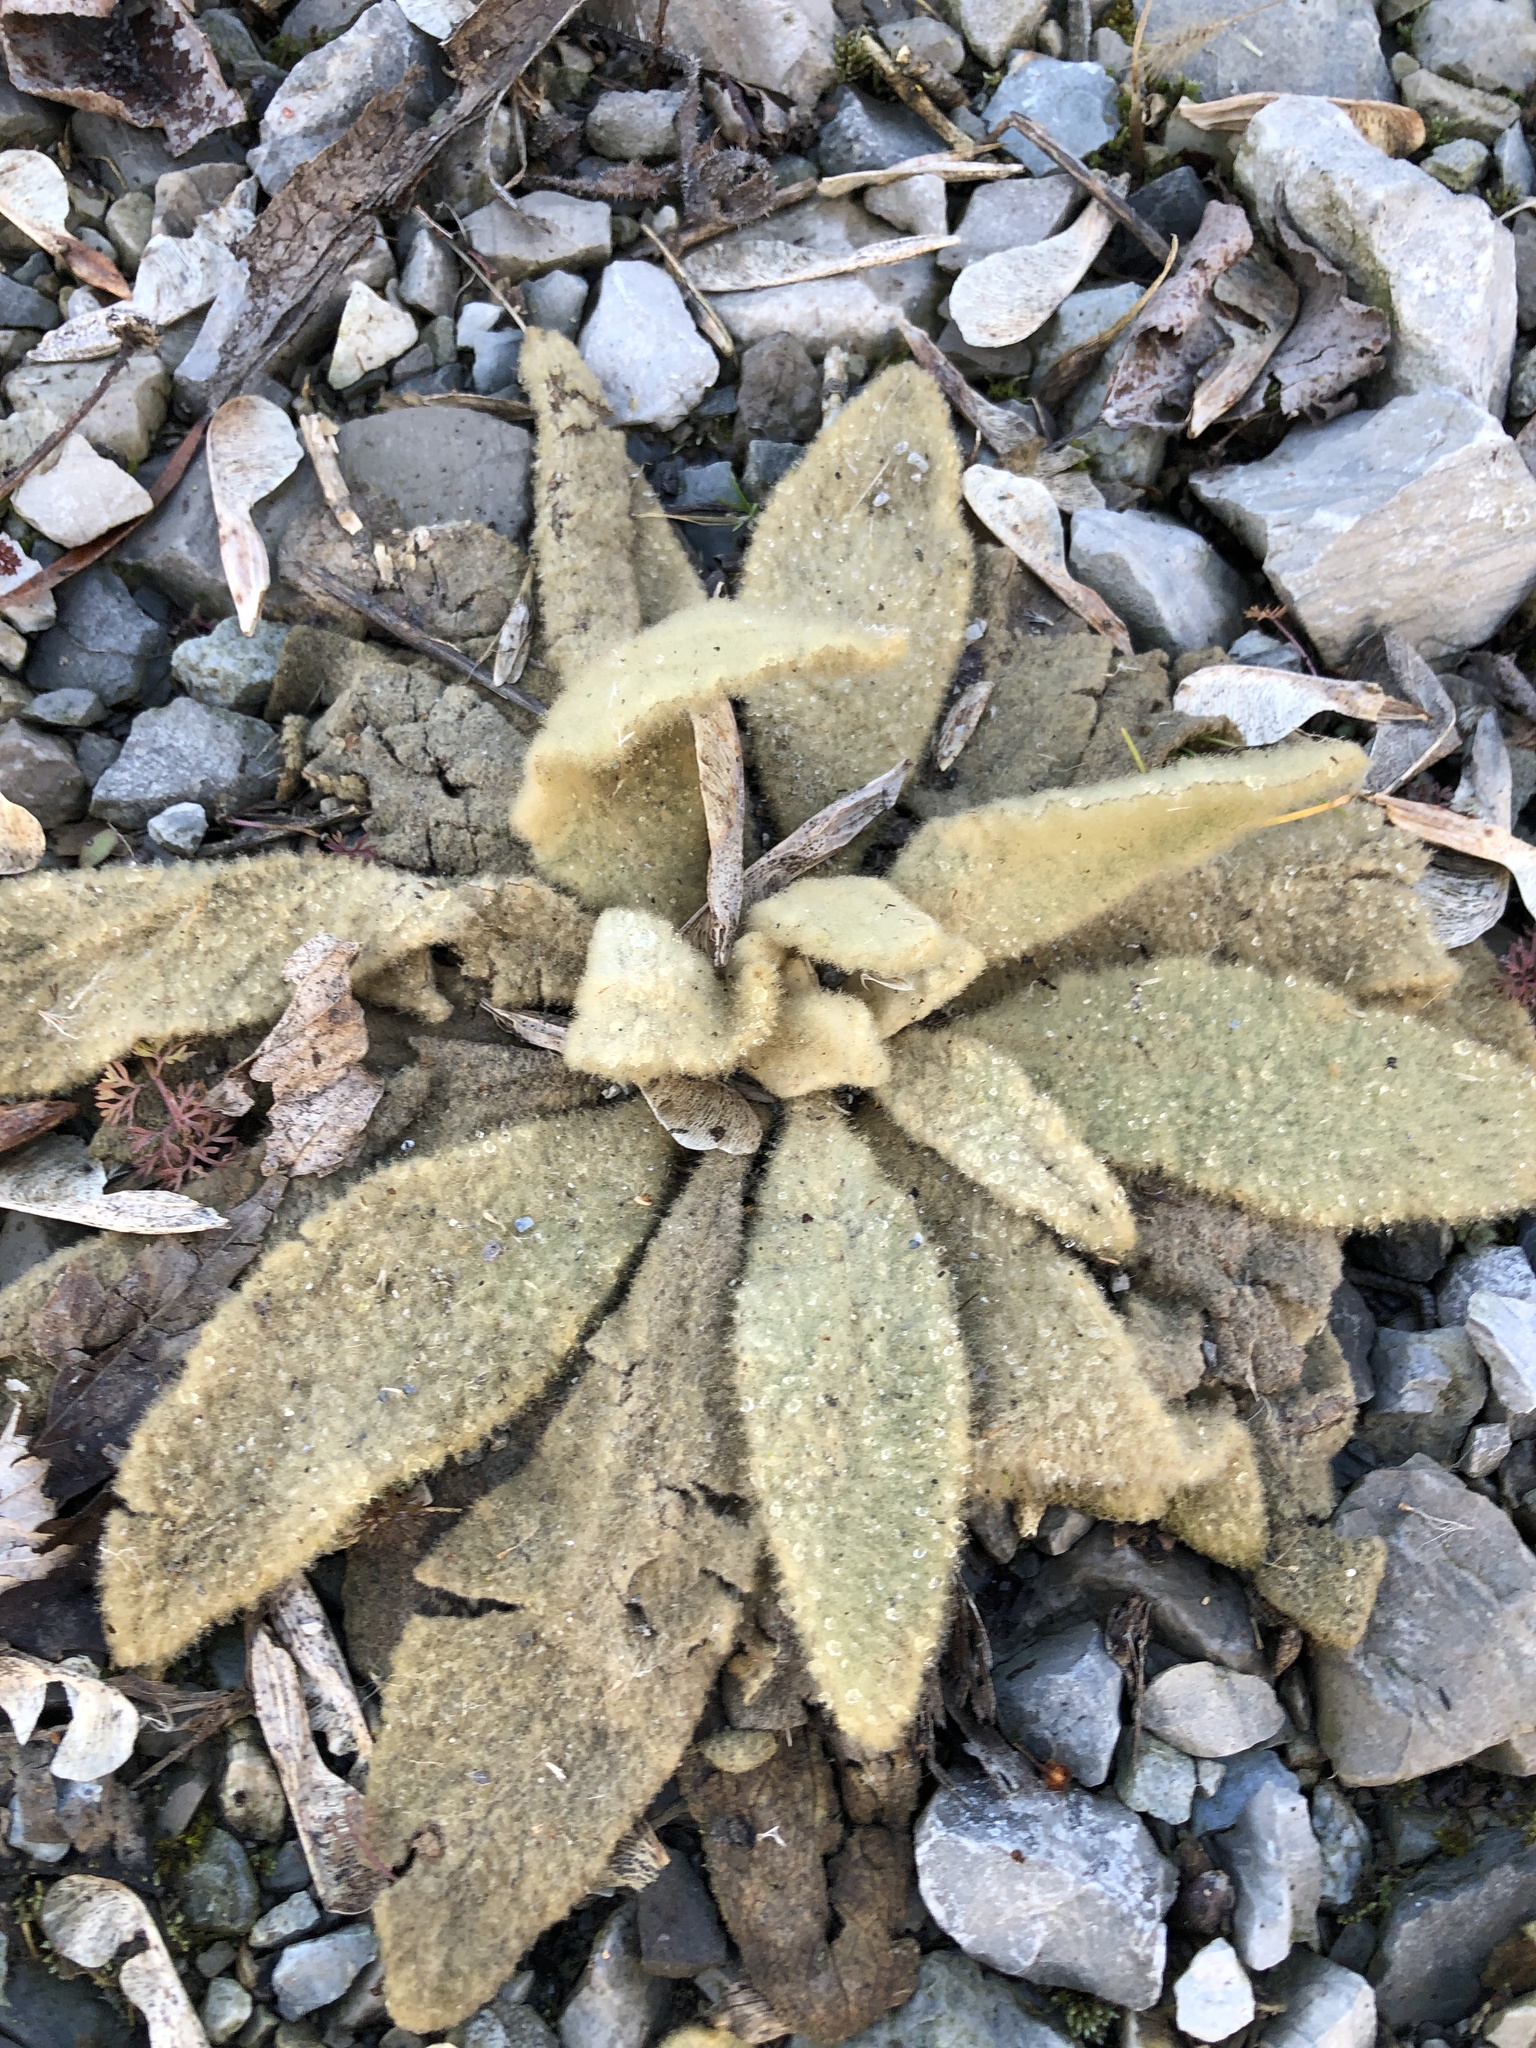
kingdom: Plantae
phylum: Tracheophyta
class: Magnoliopsida
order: Lamiales
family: Scrophulariaceae
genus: Verbascum
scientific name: Verbascum thapsus
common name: Common mullein
